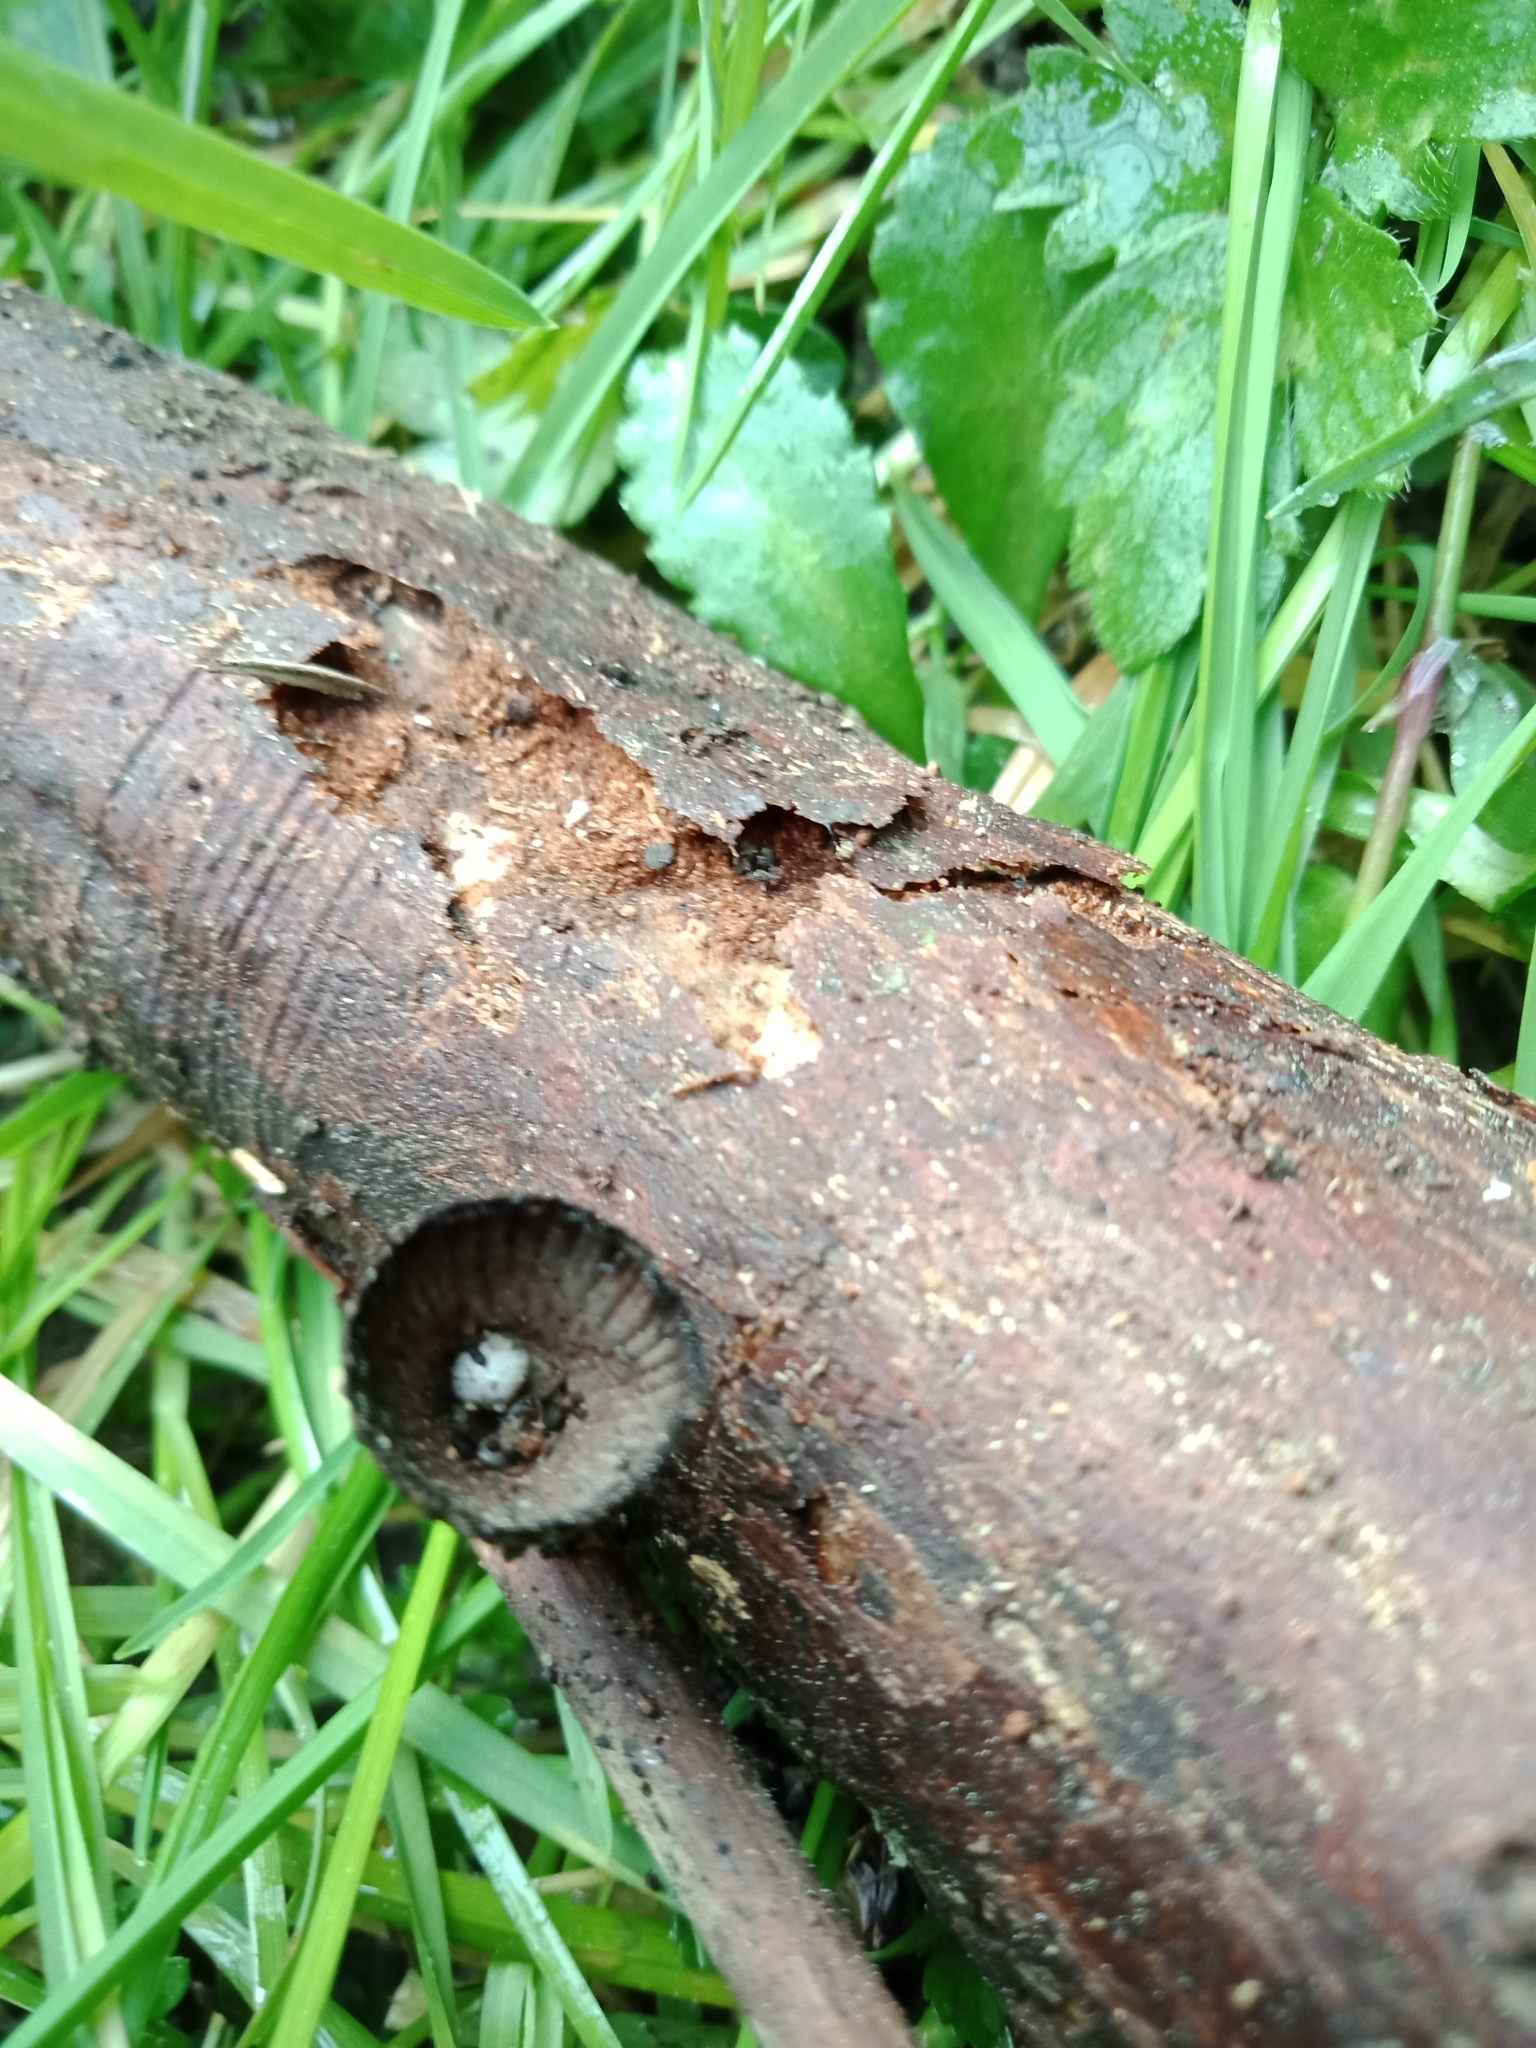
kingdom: Fungi
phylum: Basidiomycota
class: Agaricomycetes
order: Agaricales
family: Agaricaceae
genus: Cyathus
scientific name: Cyathus striatus
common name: Fluted bird's nest
